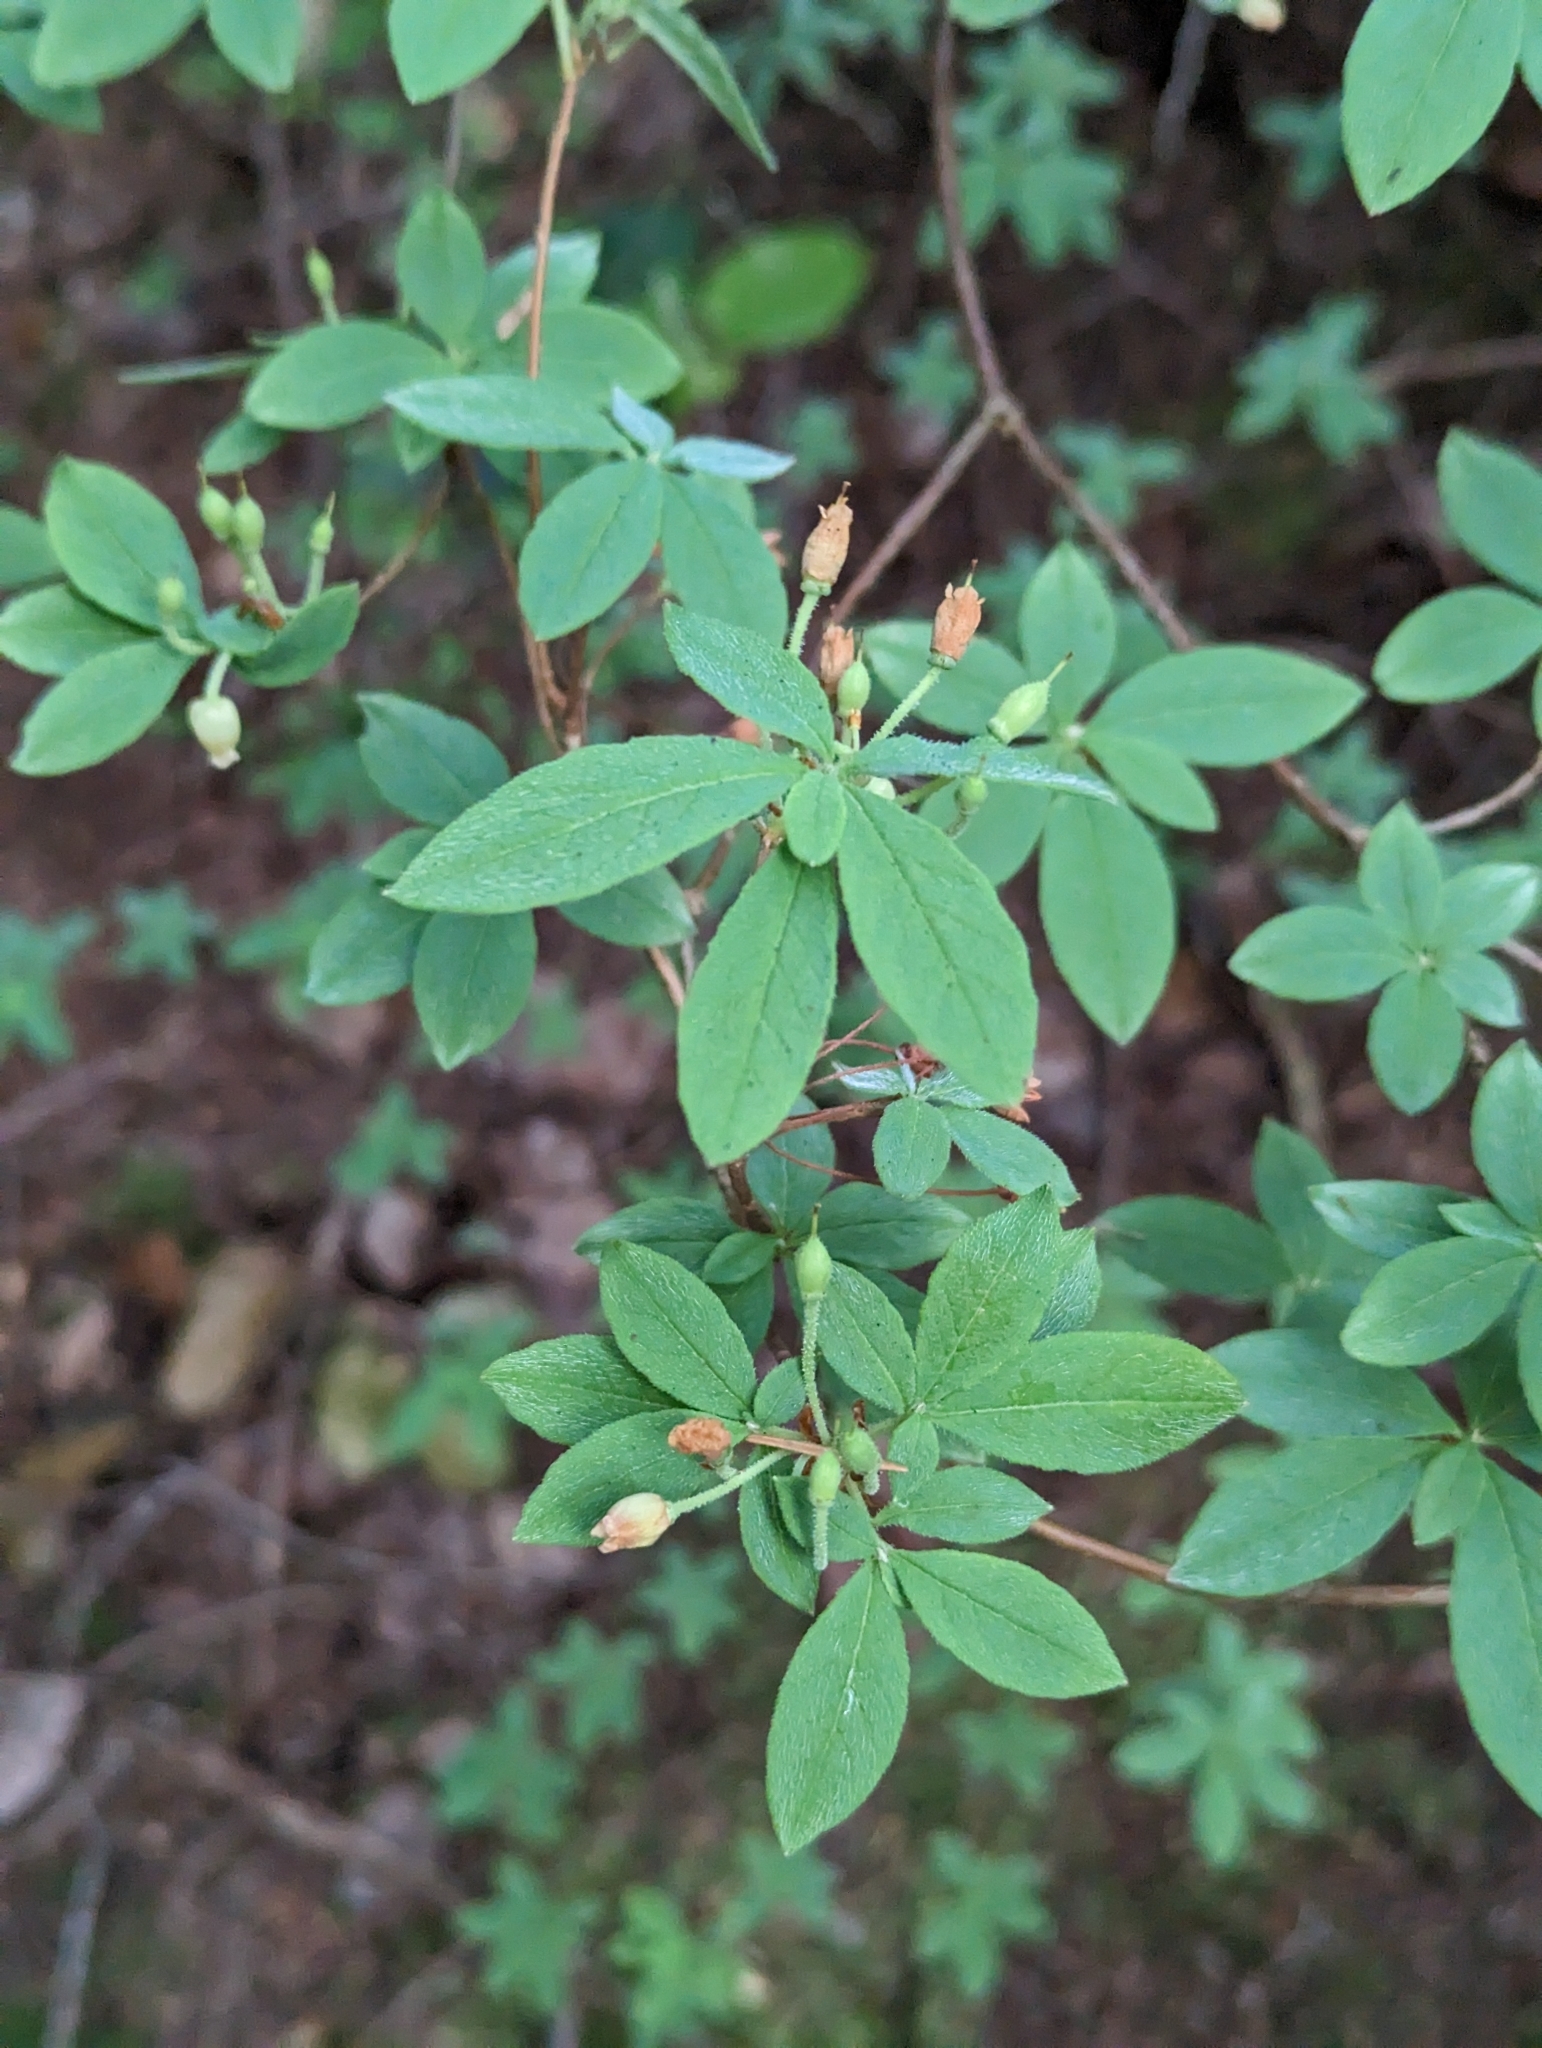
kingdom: Plantae
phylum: Tracheophyta
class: Magnoliopsida
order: Ericales
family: Ericaceae
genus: Rhododendron
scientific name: Rhododendron menziesii
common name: Pacific menziesia
